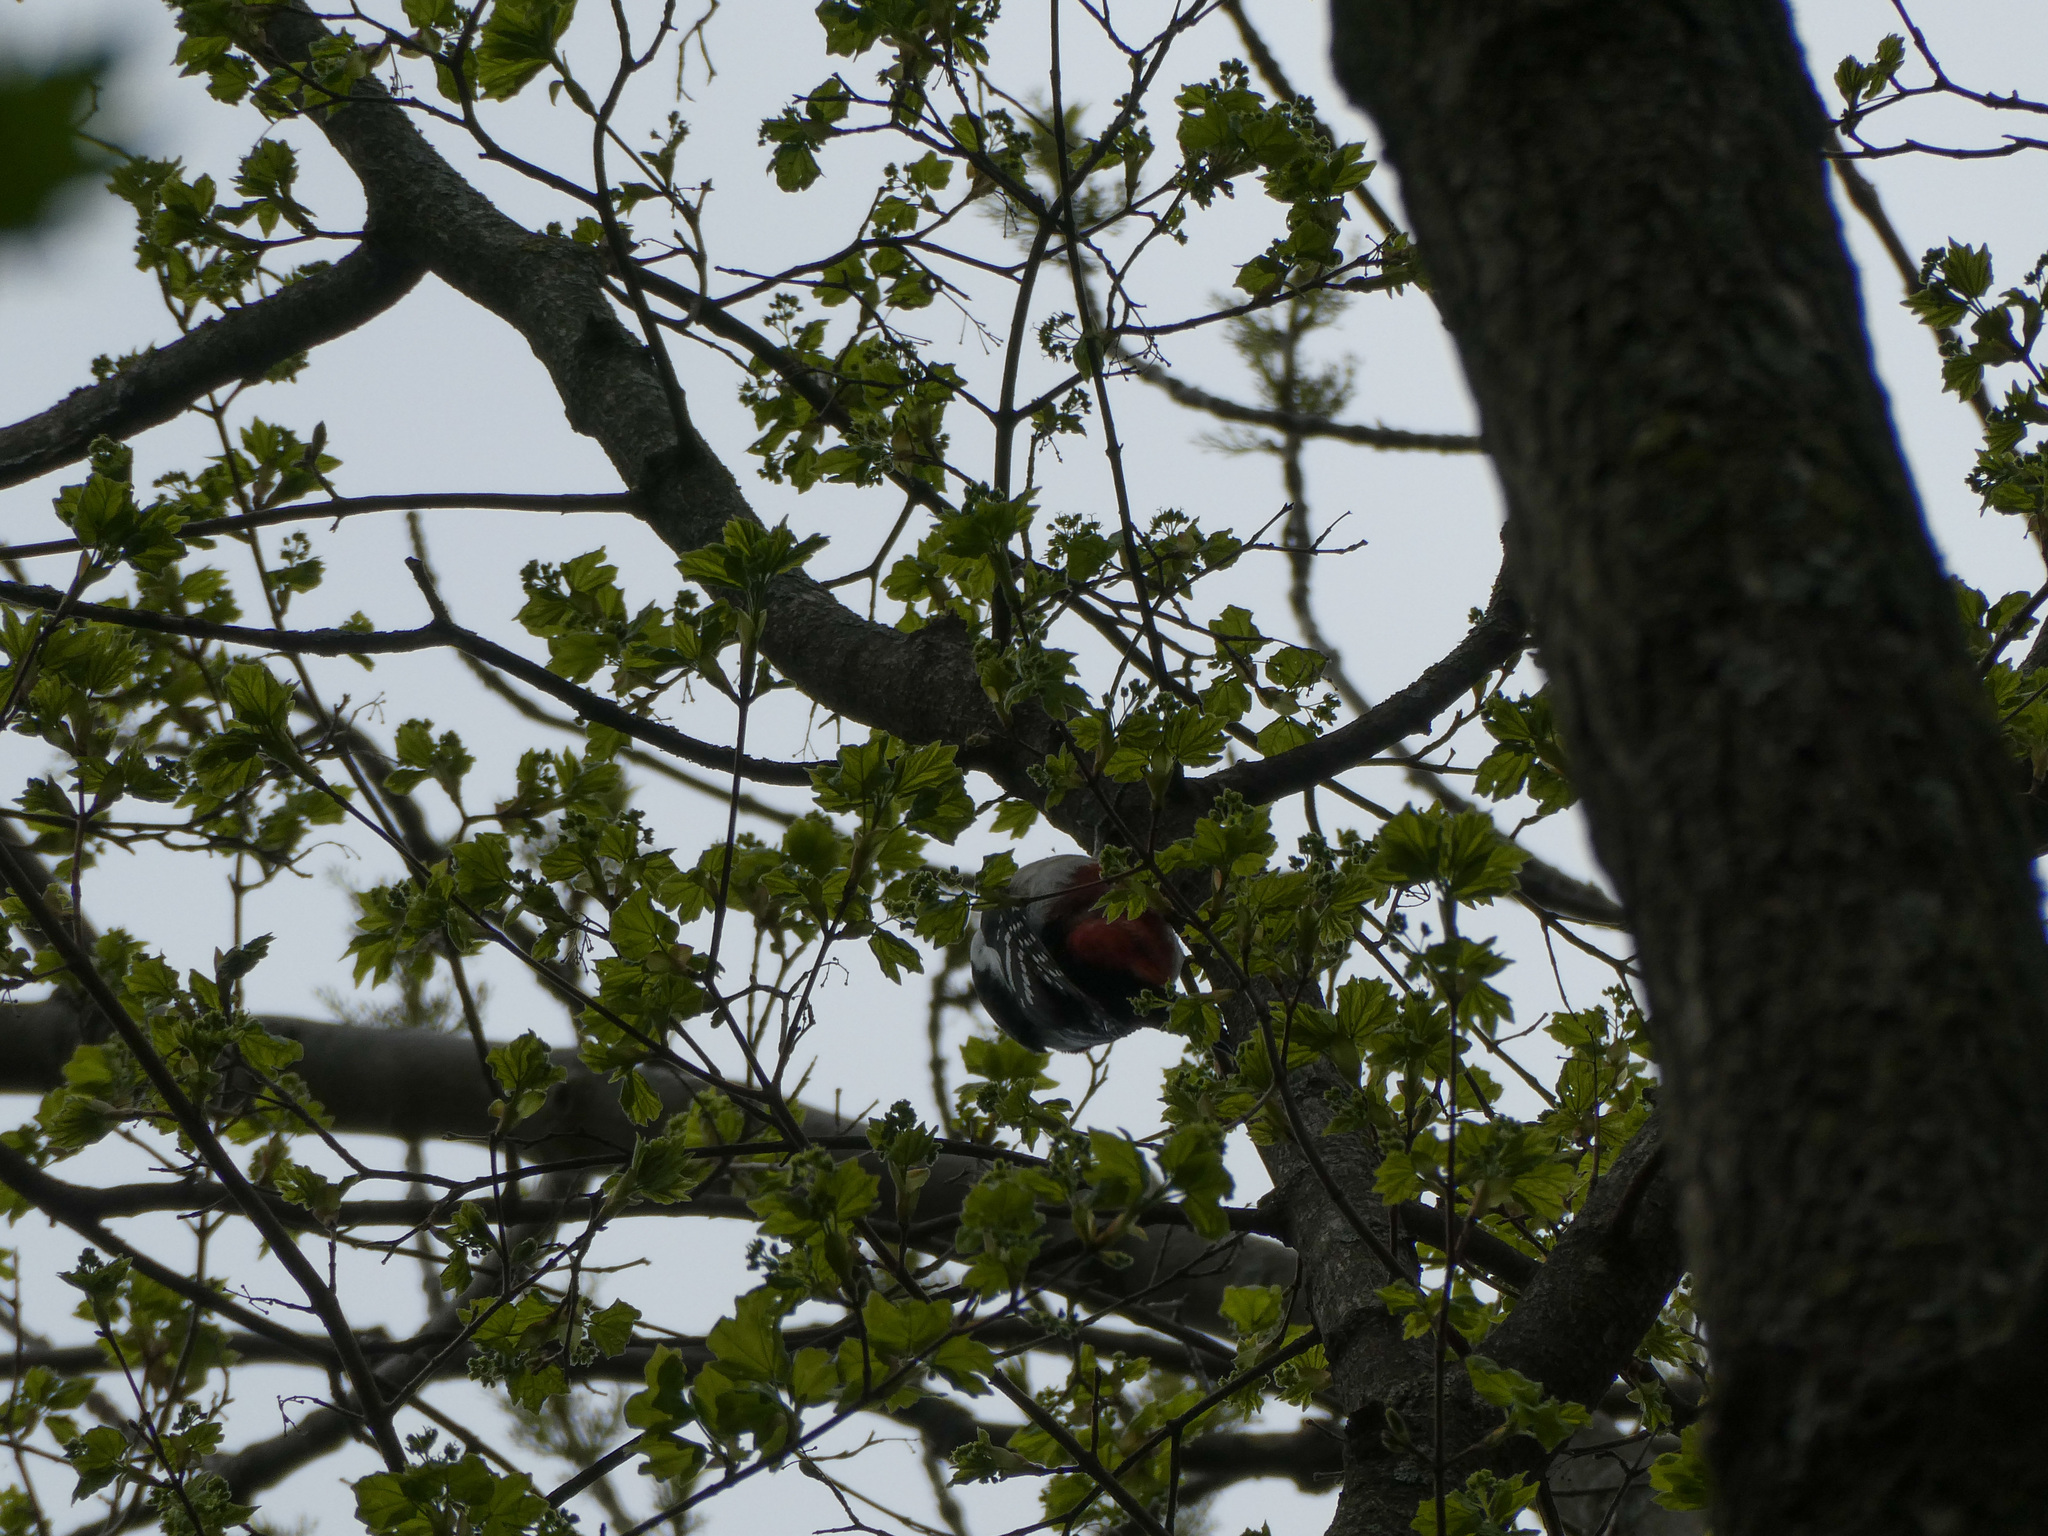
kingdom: Animalia
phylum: Chordata
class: Aves
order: Piciformes
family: Picidae
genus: Dendrocopos
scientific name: Dendrocopos major
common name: Great spotted woodpecker
